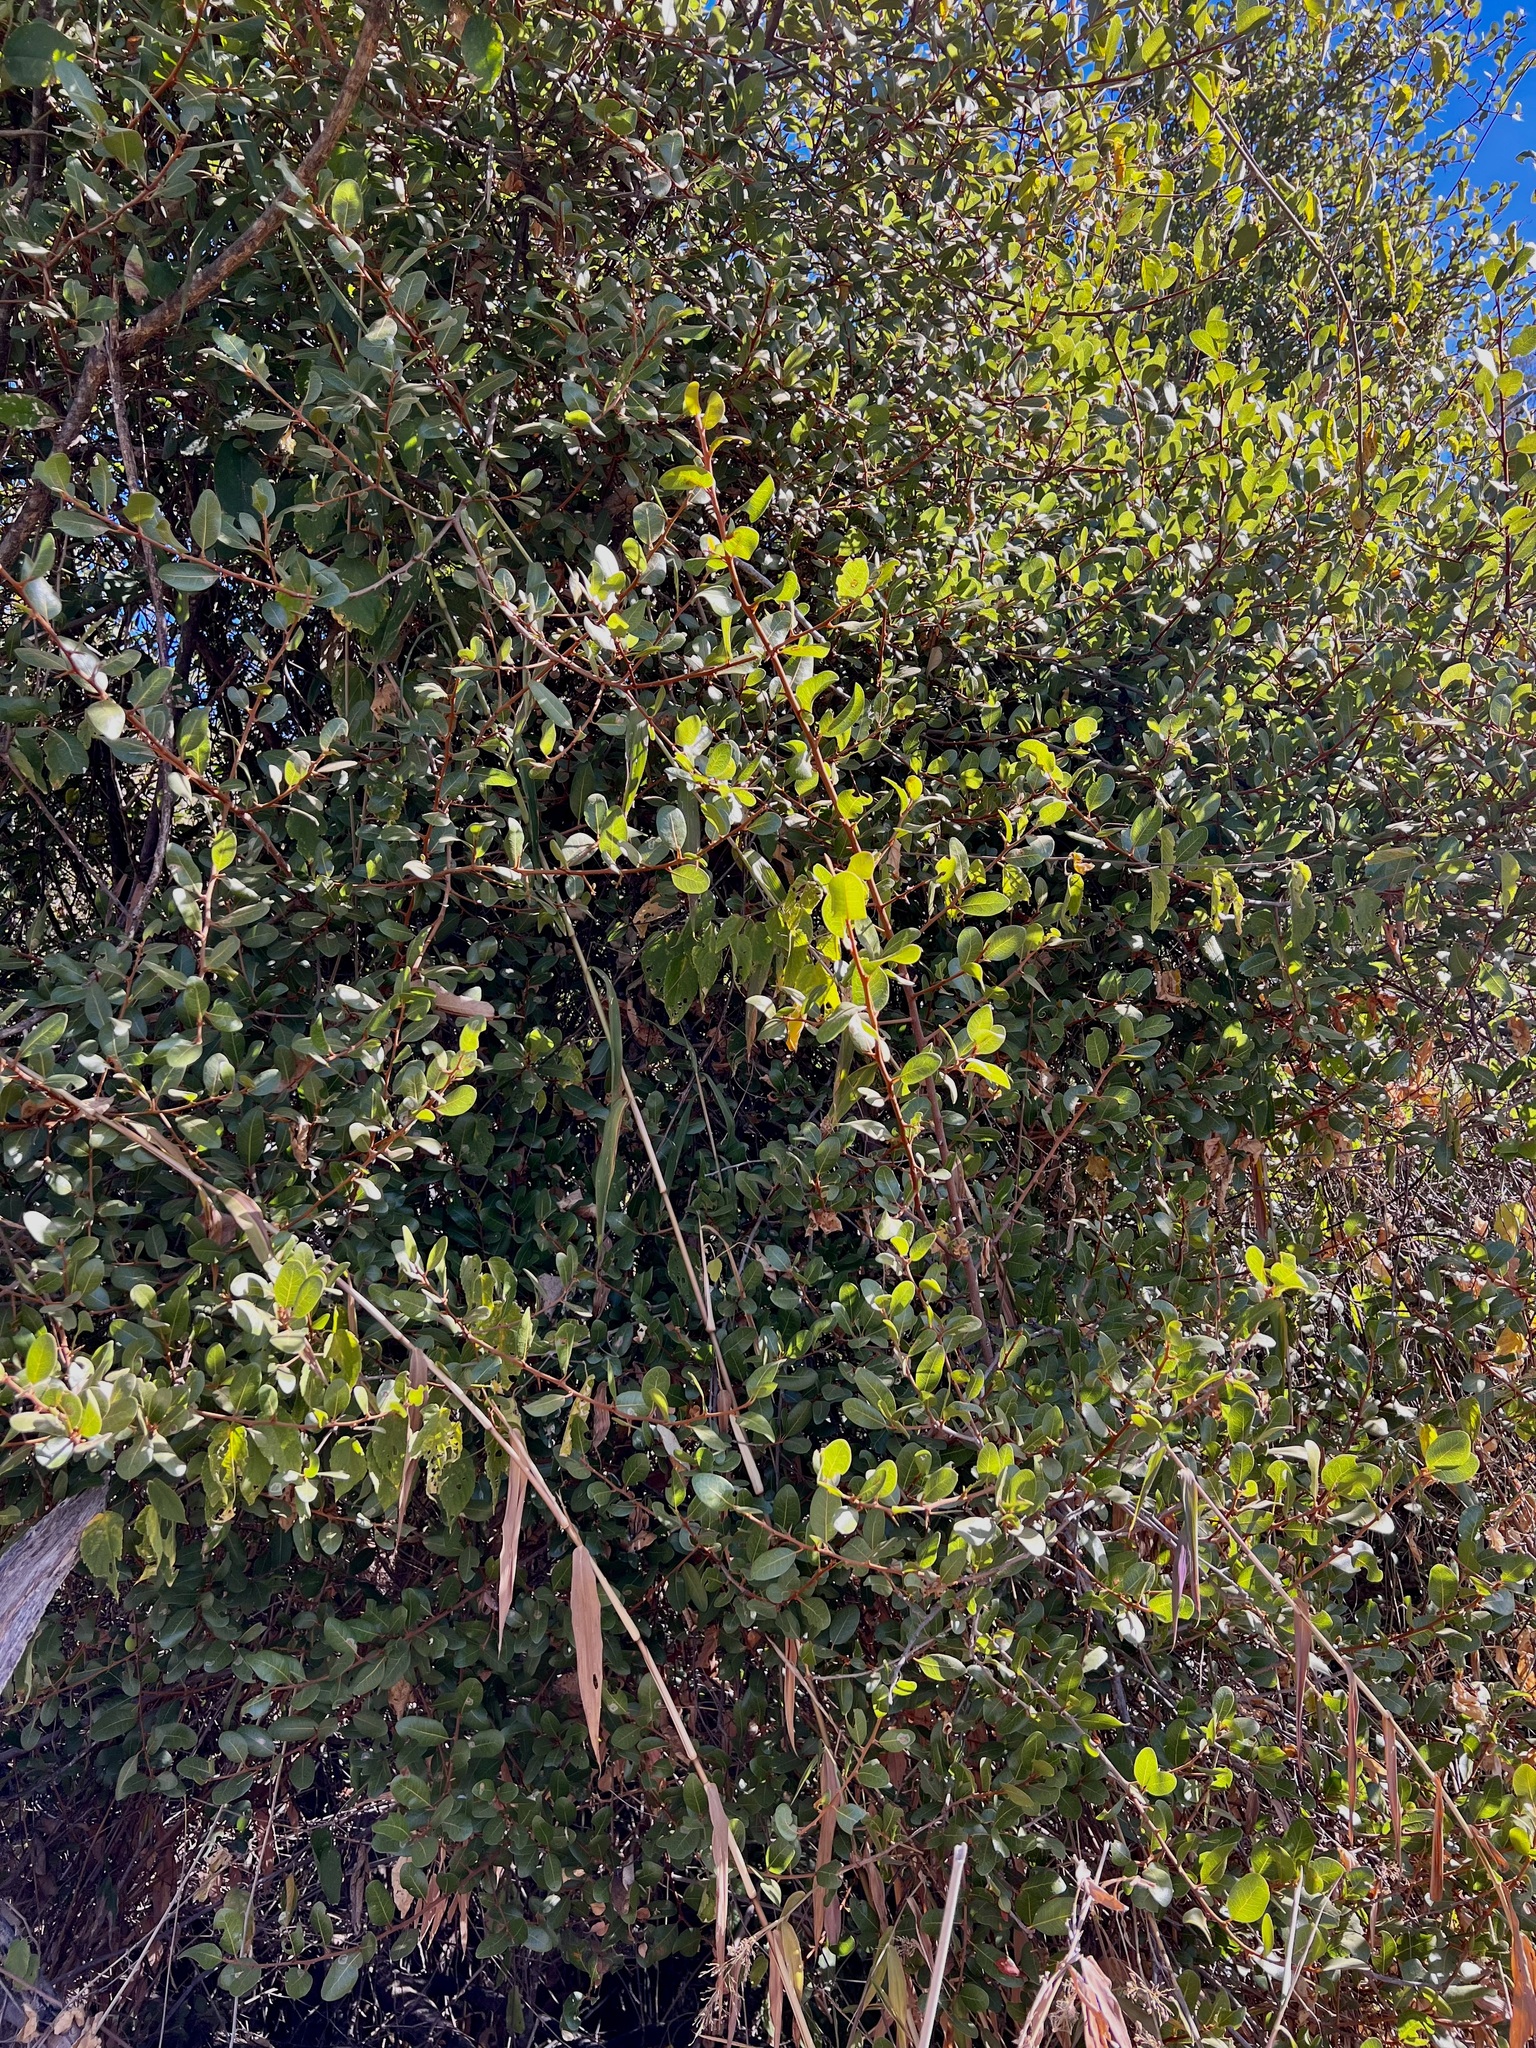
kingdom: Plantae
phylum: Tracheophyta
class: Magnoliopsida
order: Ericales
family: Sapotaceae
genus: Sideroxylon
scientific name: Sideroxylon peninsulare
